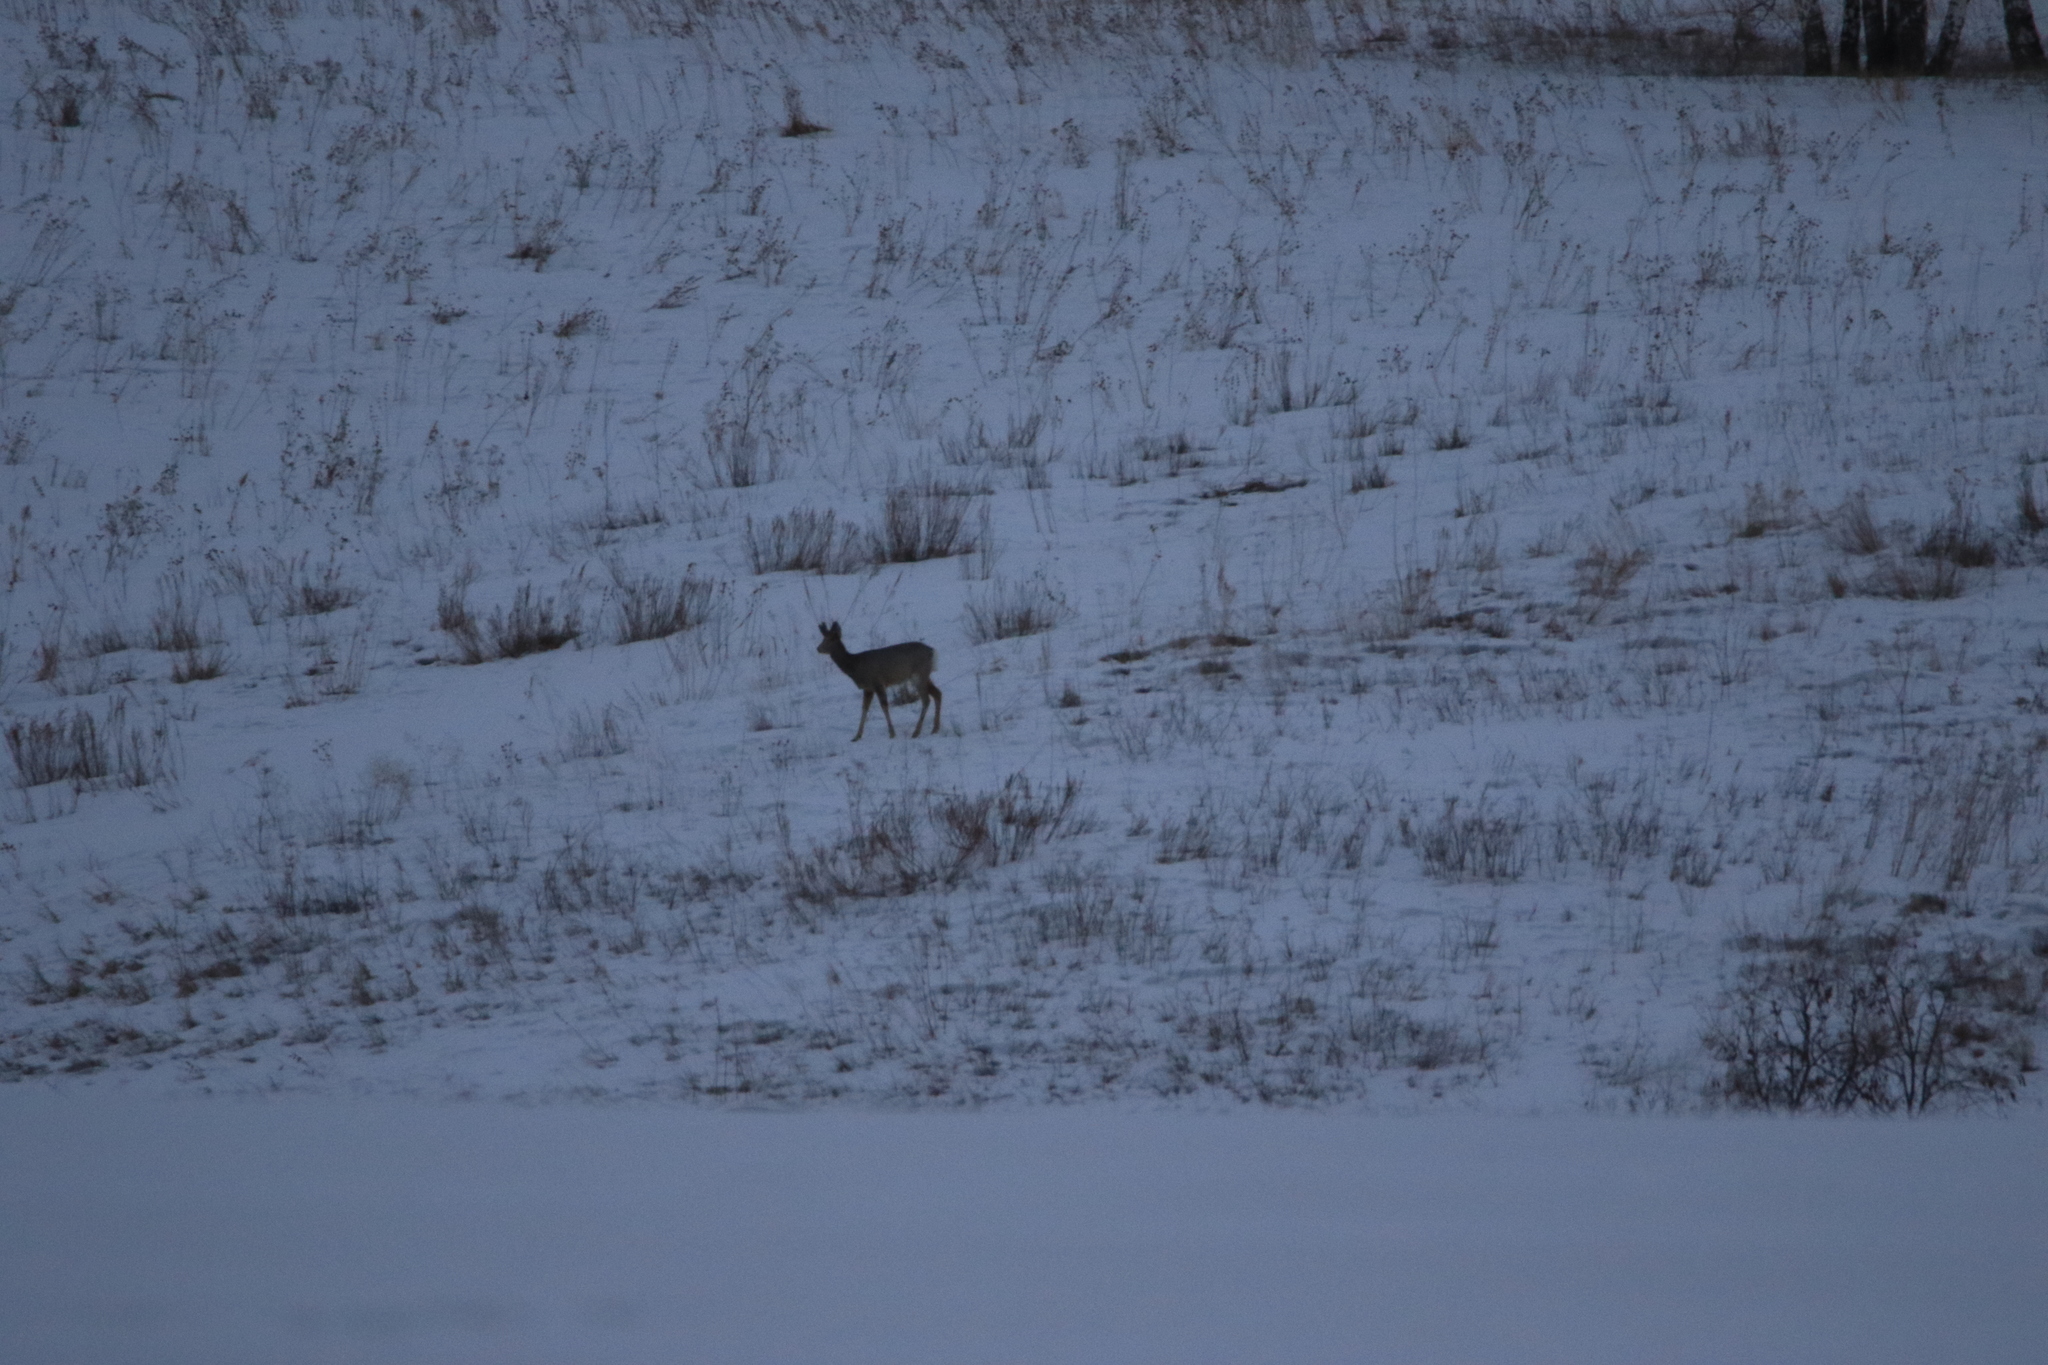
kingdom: Animalia
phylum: Chordata
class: Mammalia
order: Artiodactyla
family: Cervidae
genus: Capreolus
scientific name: Capreolus pygargus
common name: Siberian roe
